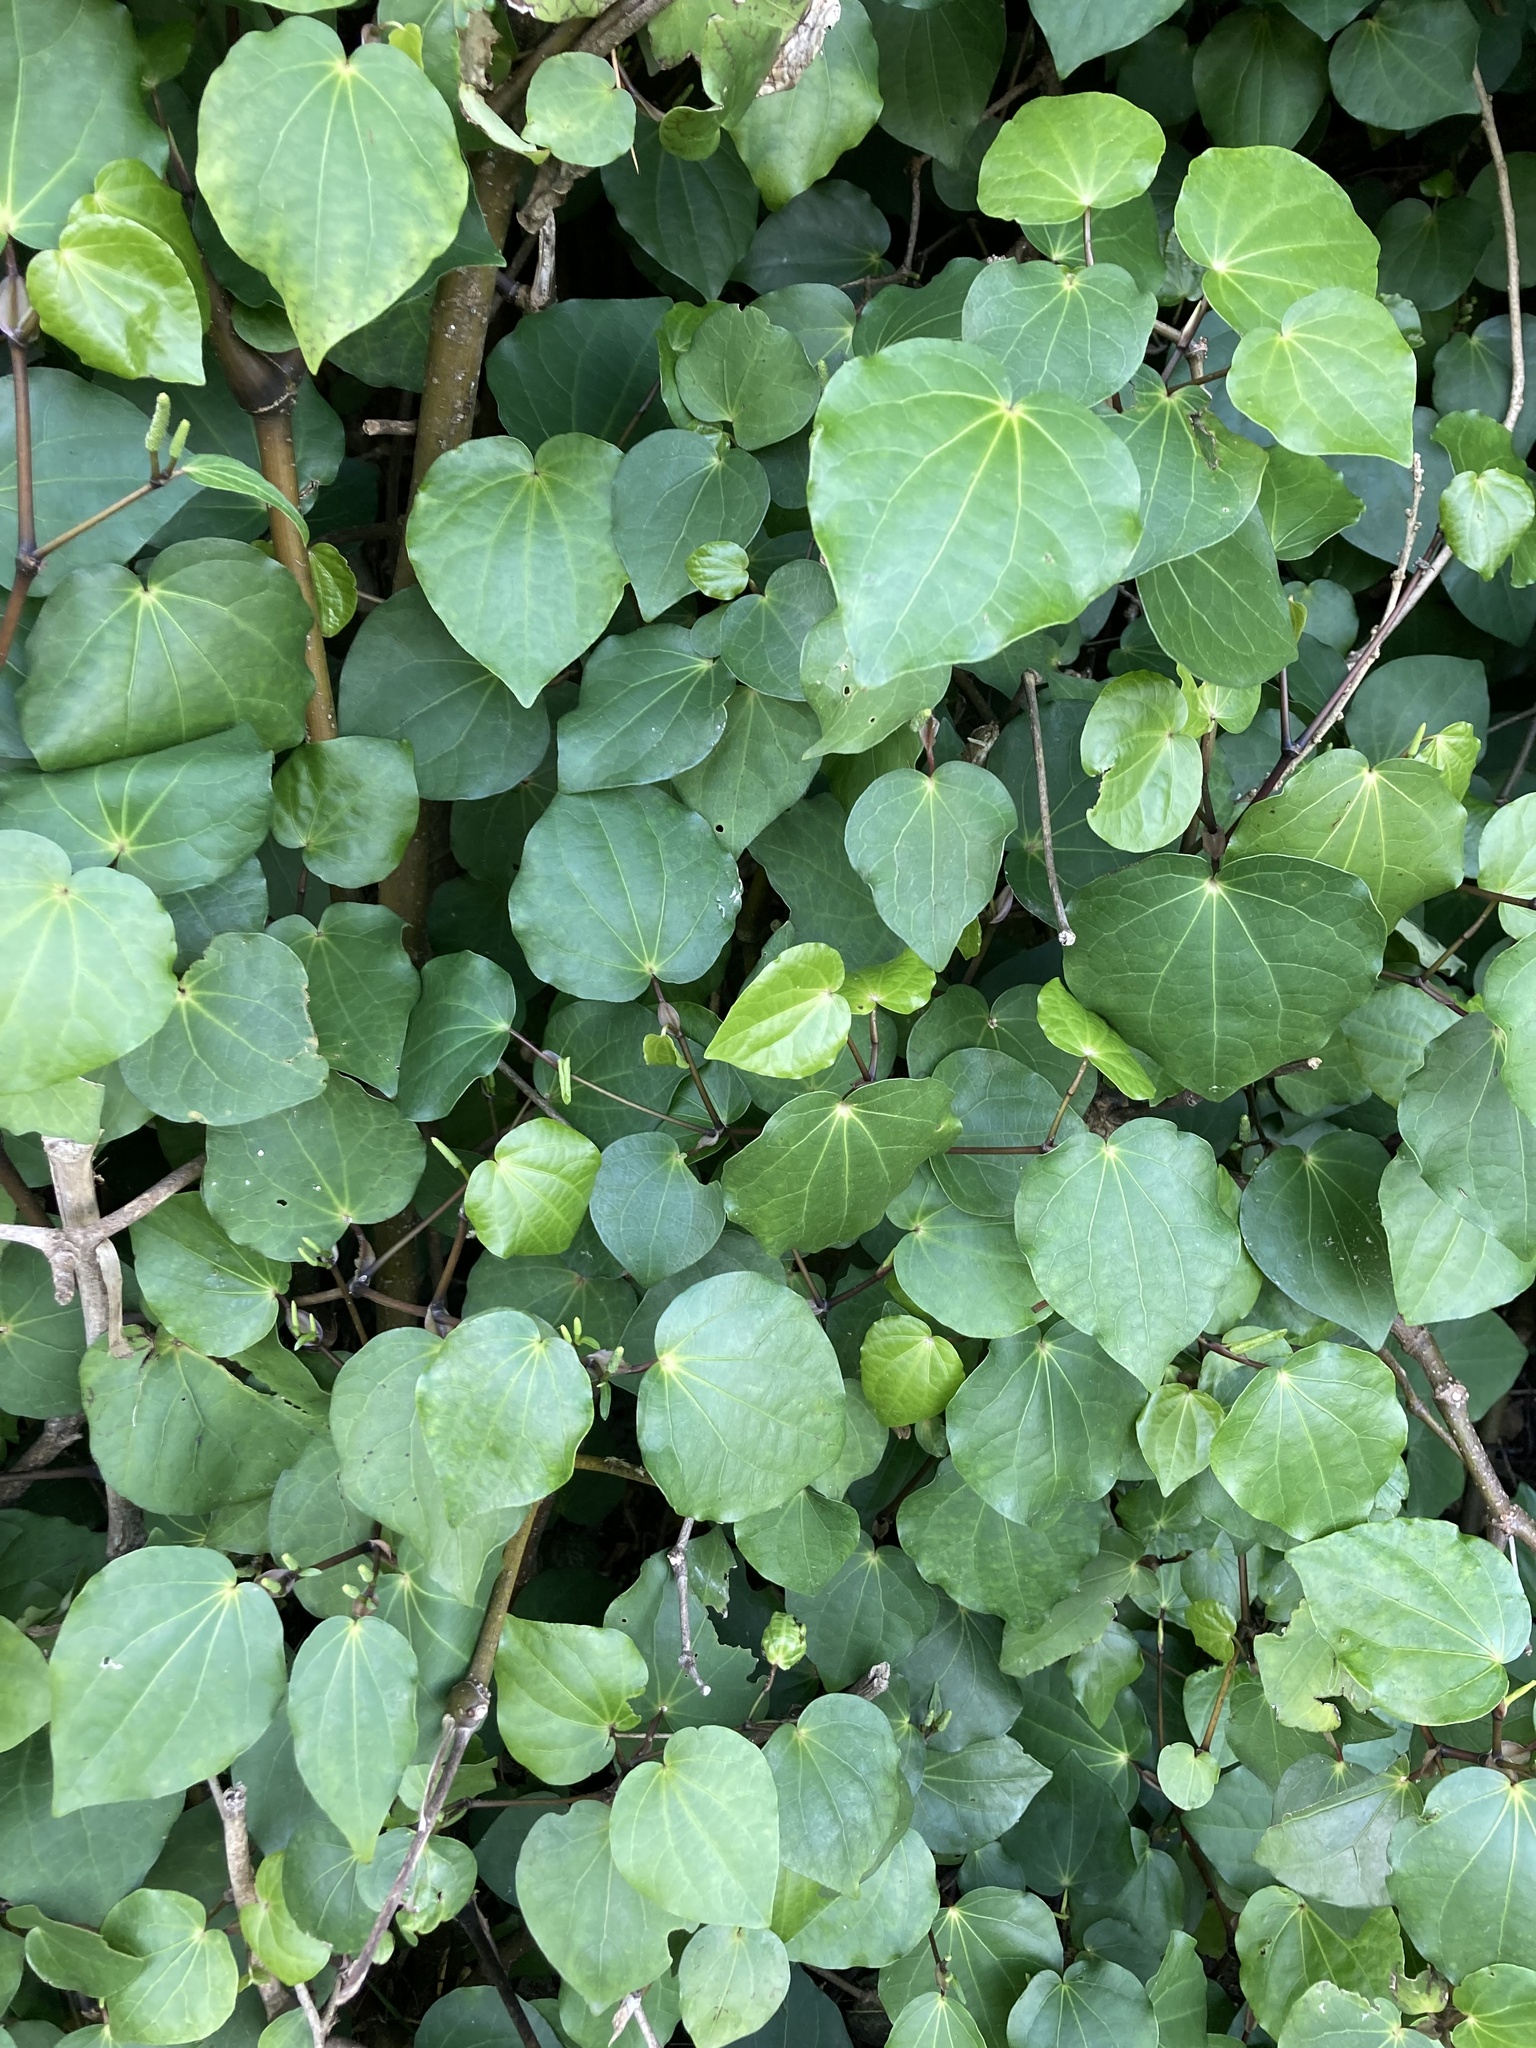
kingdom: Plantae
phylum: Tracheophyta
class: Magnoliopsida
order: Piperales
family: Piperaceae
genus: Macropiper
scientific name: Macropiper excelsum
